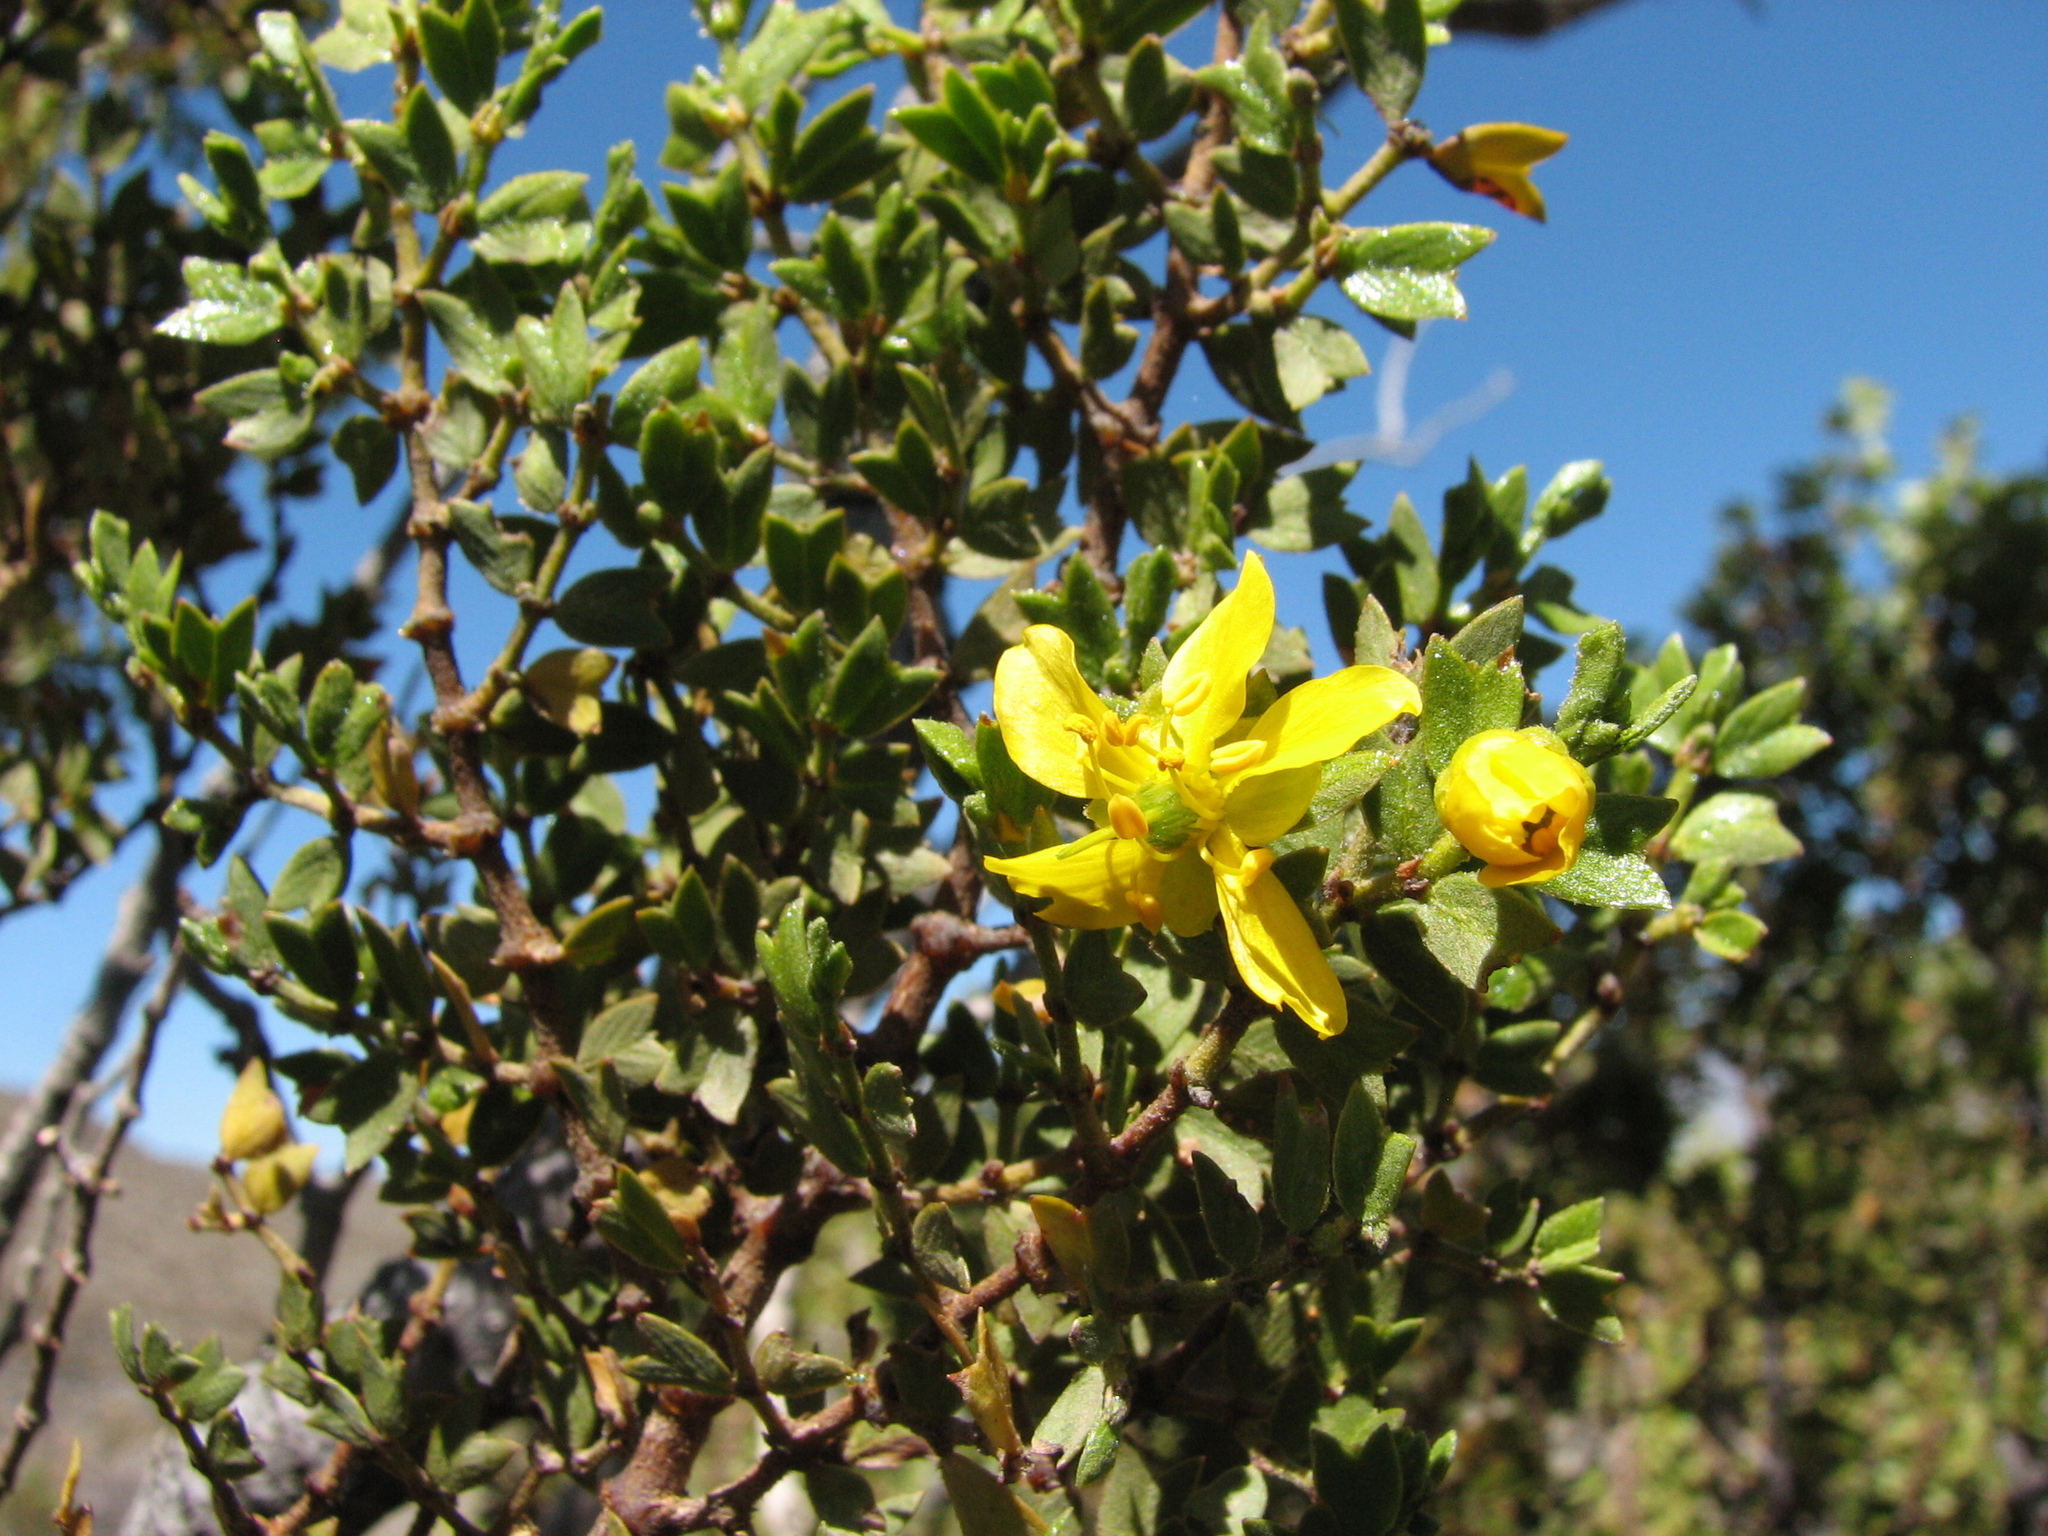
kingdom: Plantae
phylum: Tracheophyta
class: Magnoliopsida
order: Zygophyllales
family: Zygophyllaceae
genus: Larrea
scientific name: Larrea cuneifolia
